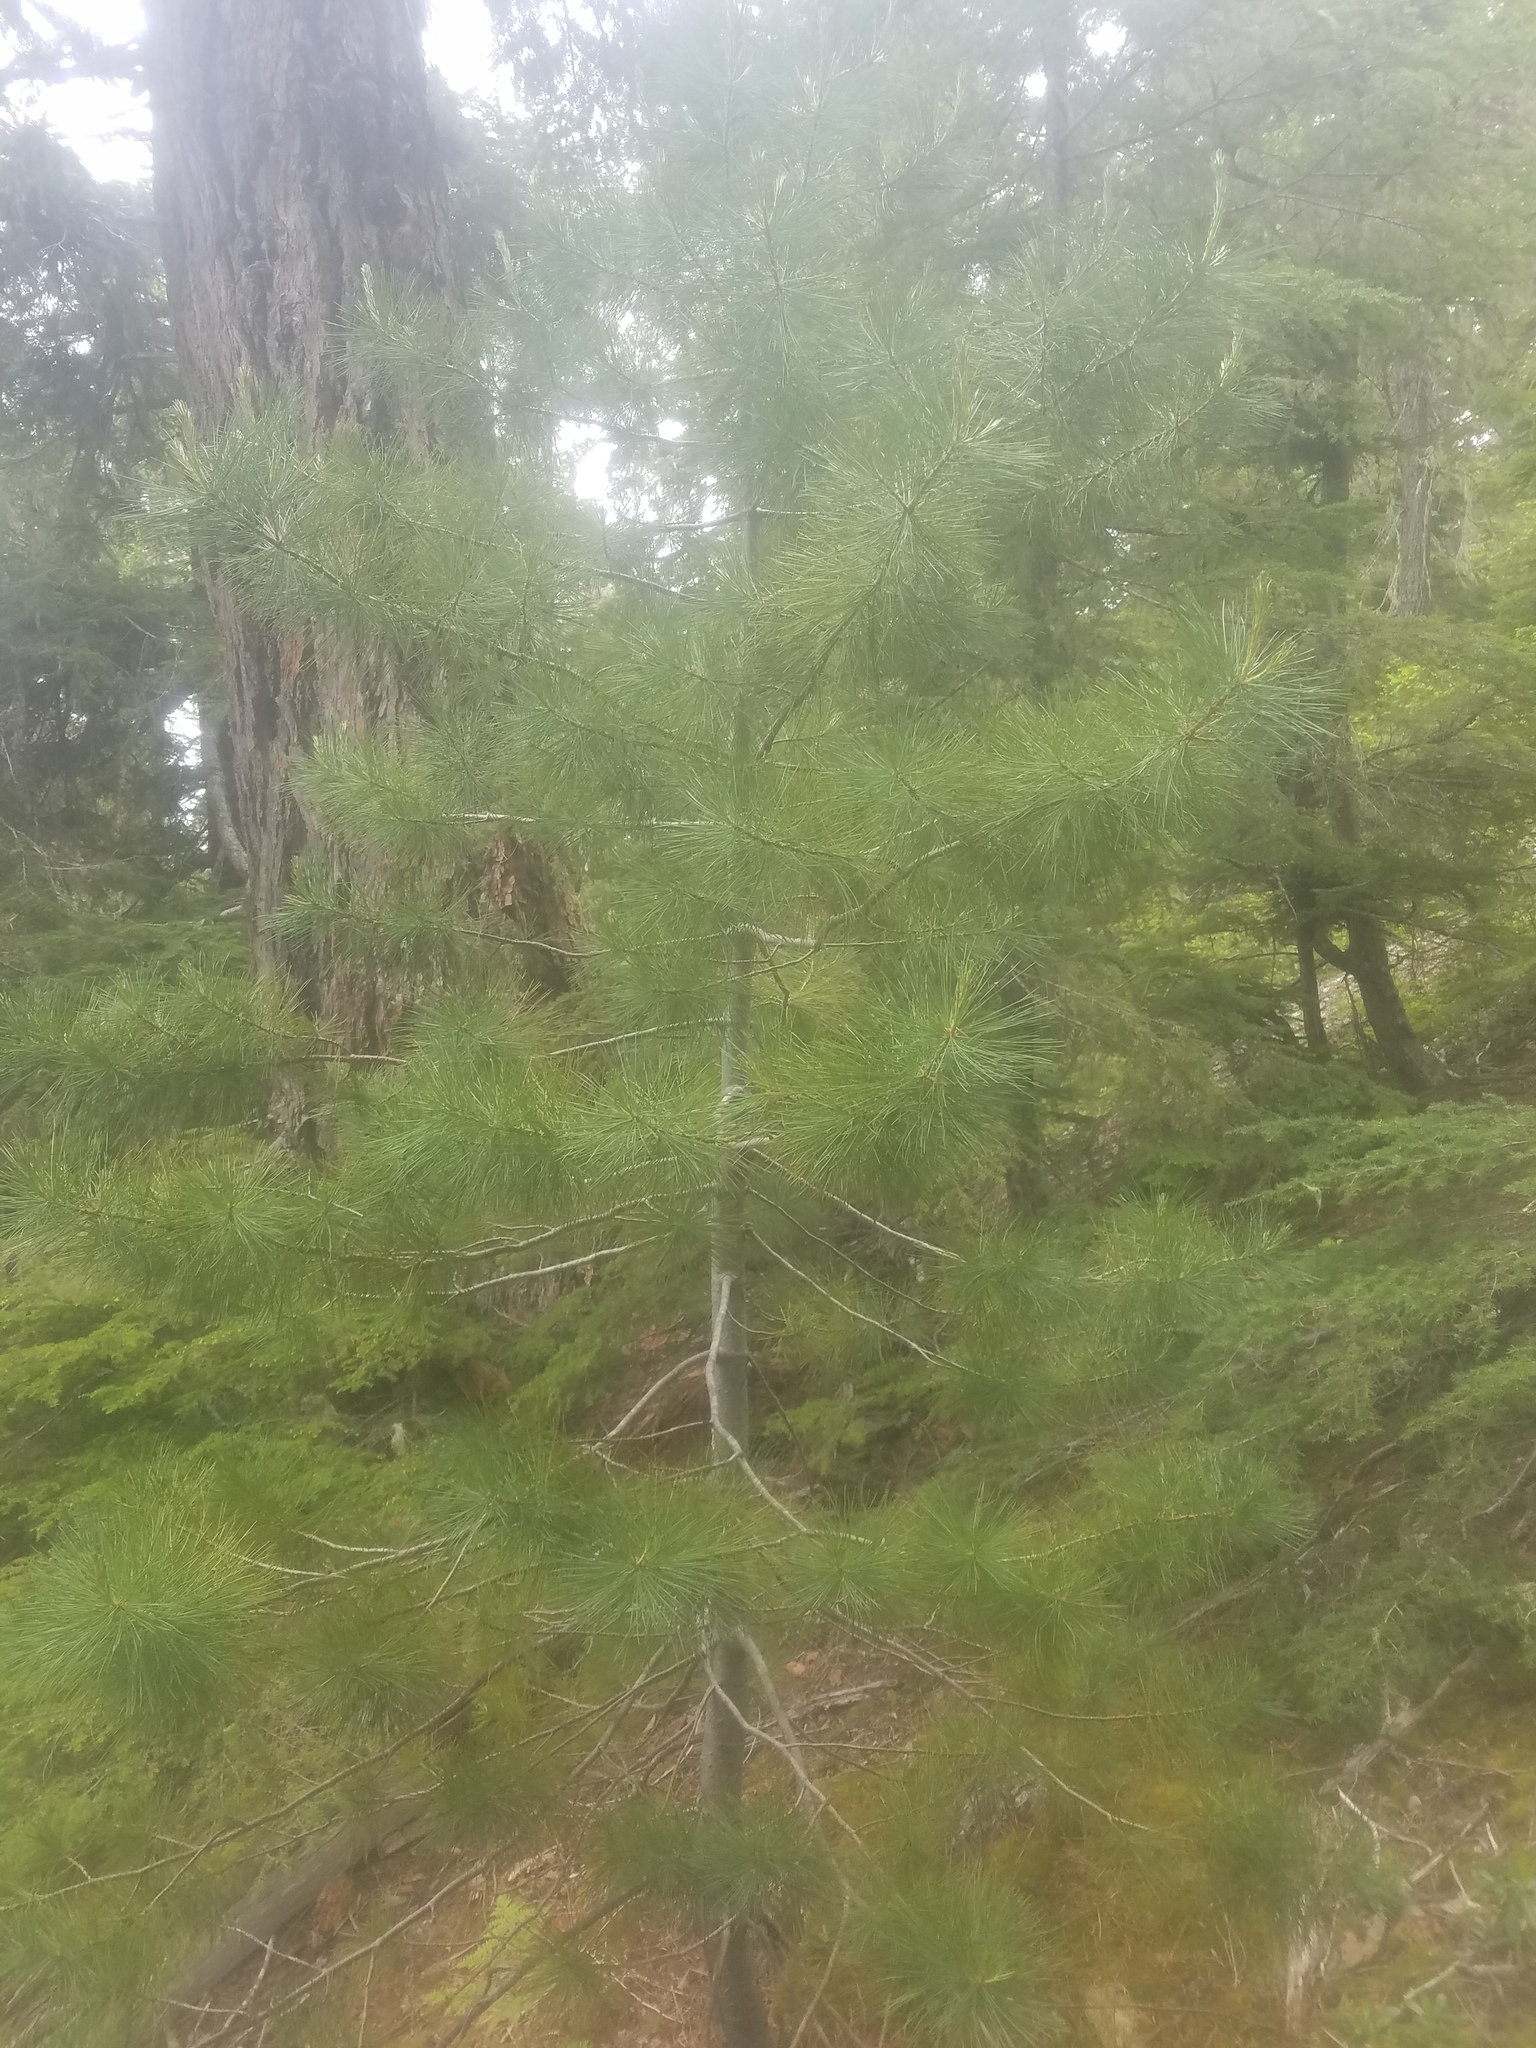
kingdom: Plantae
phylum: Tracheophyta
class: Pinopsida
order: Pinales
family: Pinaceae
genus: Pinus
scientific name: Pinus monticola
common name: Western white pine
